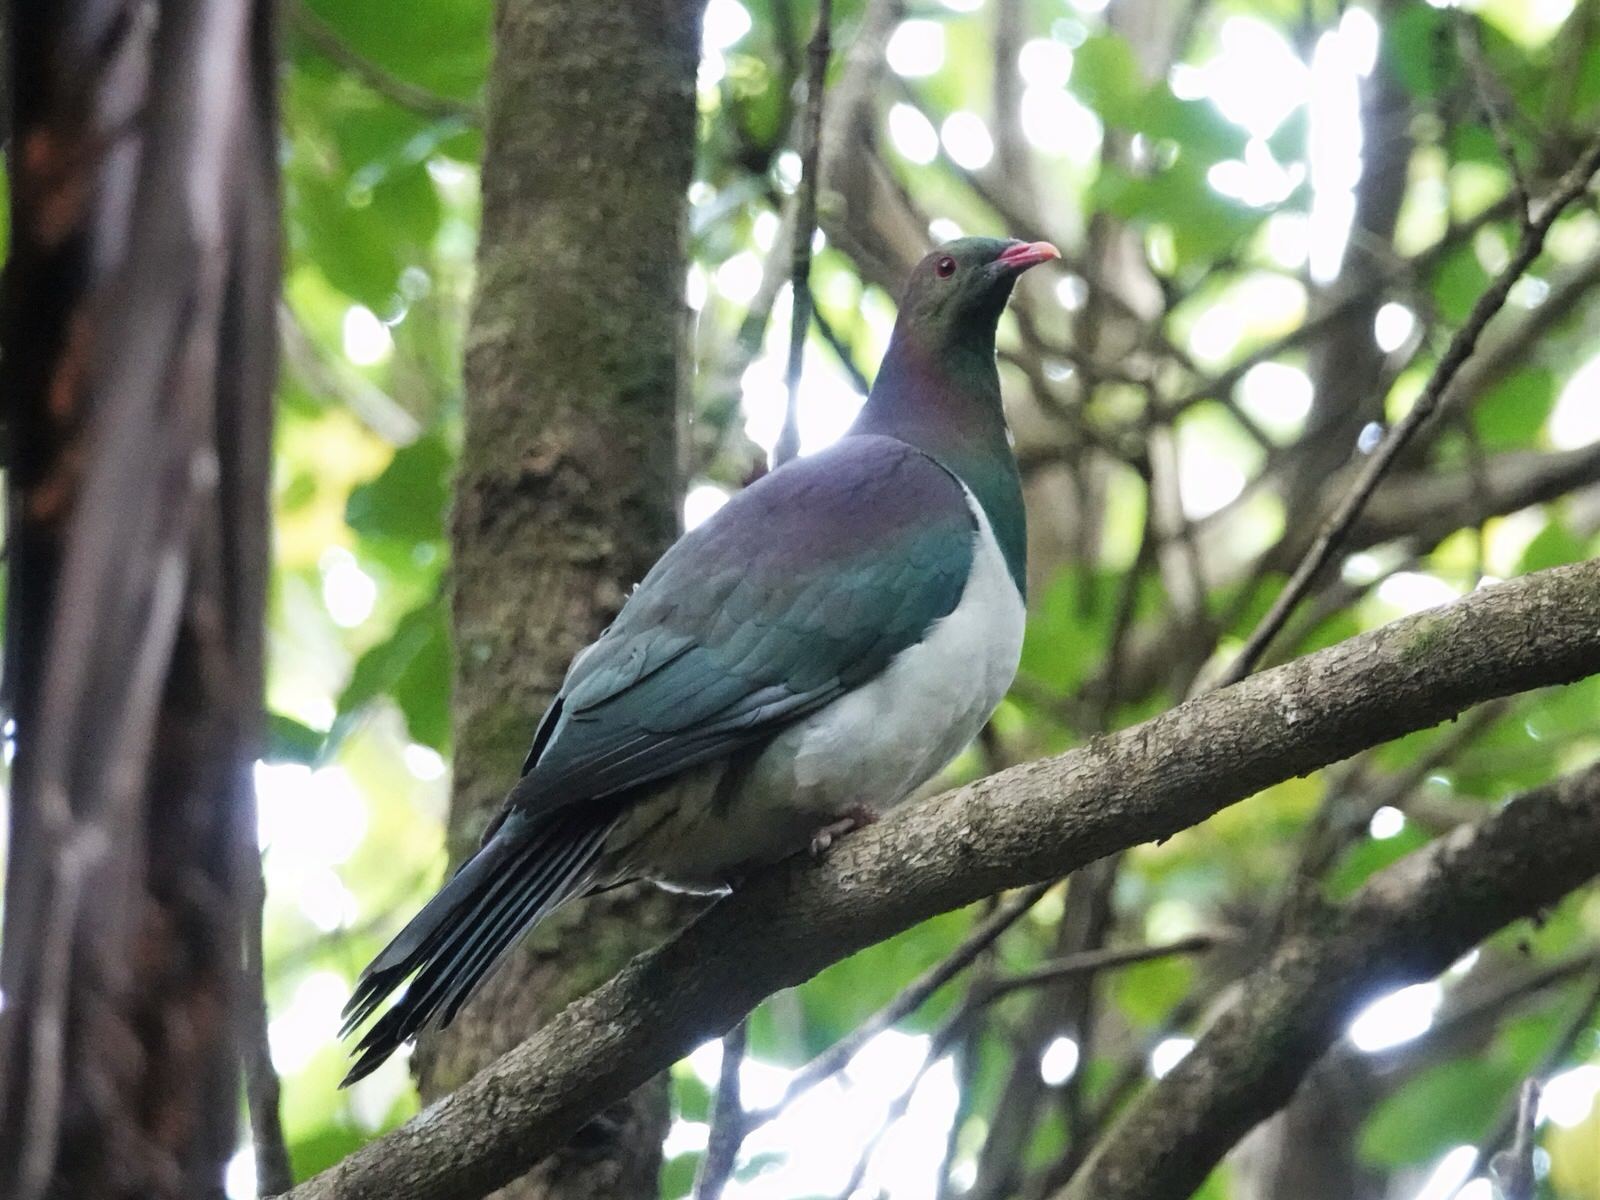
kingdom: Animalia
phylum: Chordata
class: Aves
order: Columbiformes
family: Columbidae
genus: Hemiphaga
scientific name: Hemiphaga novaeseelandiae
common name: New zealand pigeon
